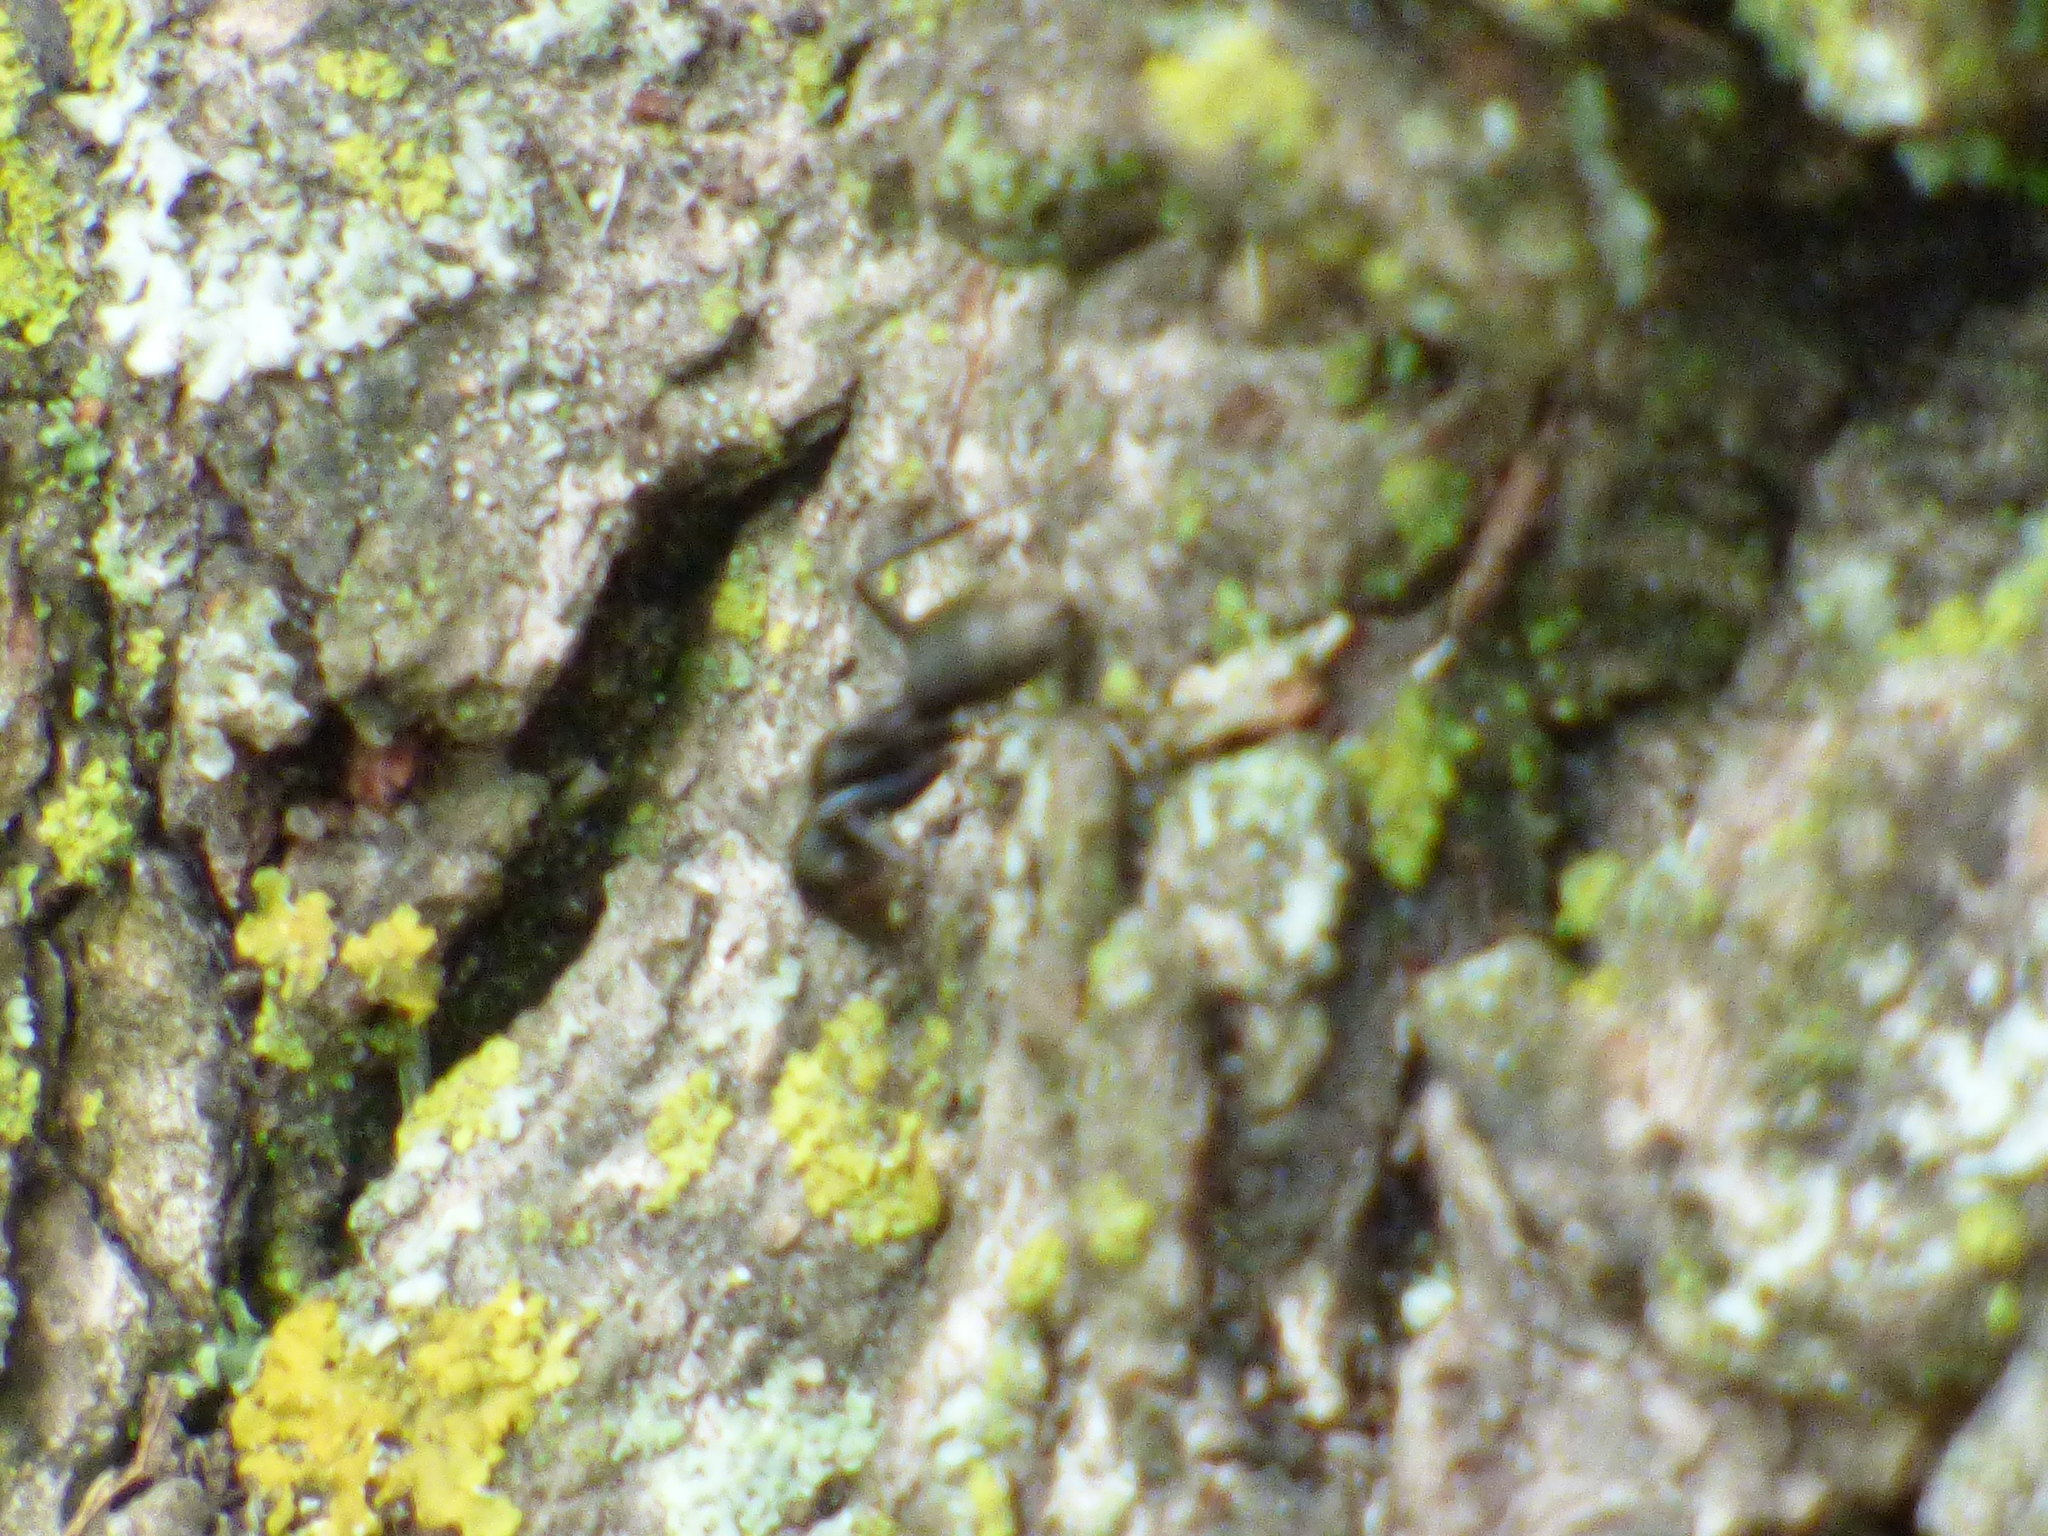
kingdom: Animalia
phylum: Arthropoda
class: Insecta
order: Hymenoptera
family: Formicidae
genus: Camponotus
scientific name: Camponotus pennsylvanicus
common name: Black carpenter ant
